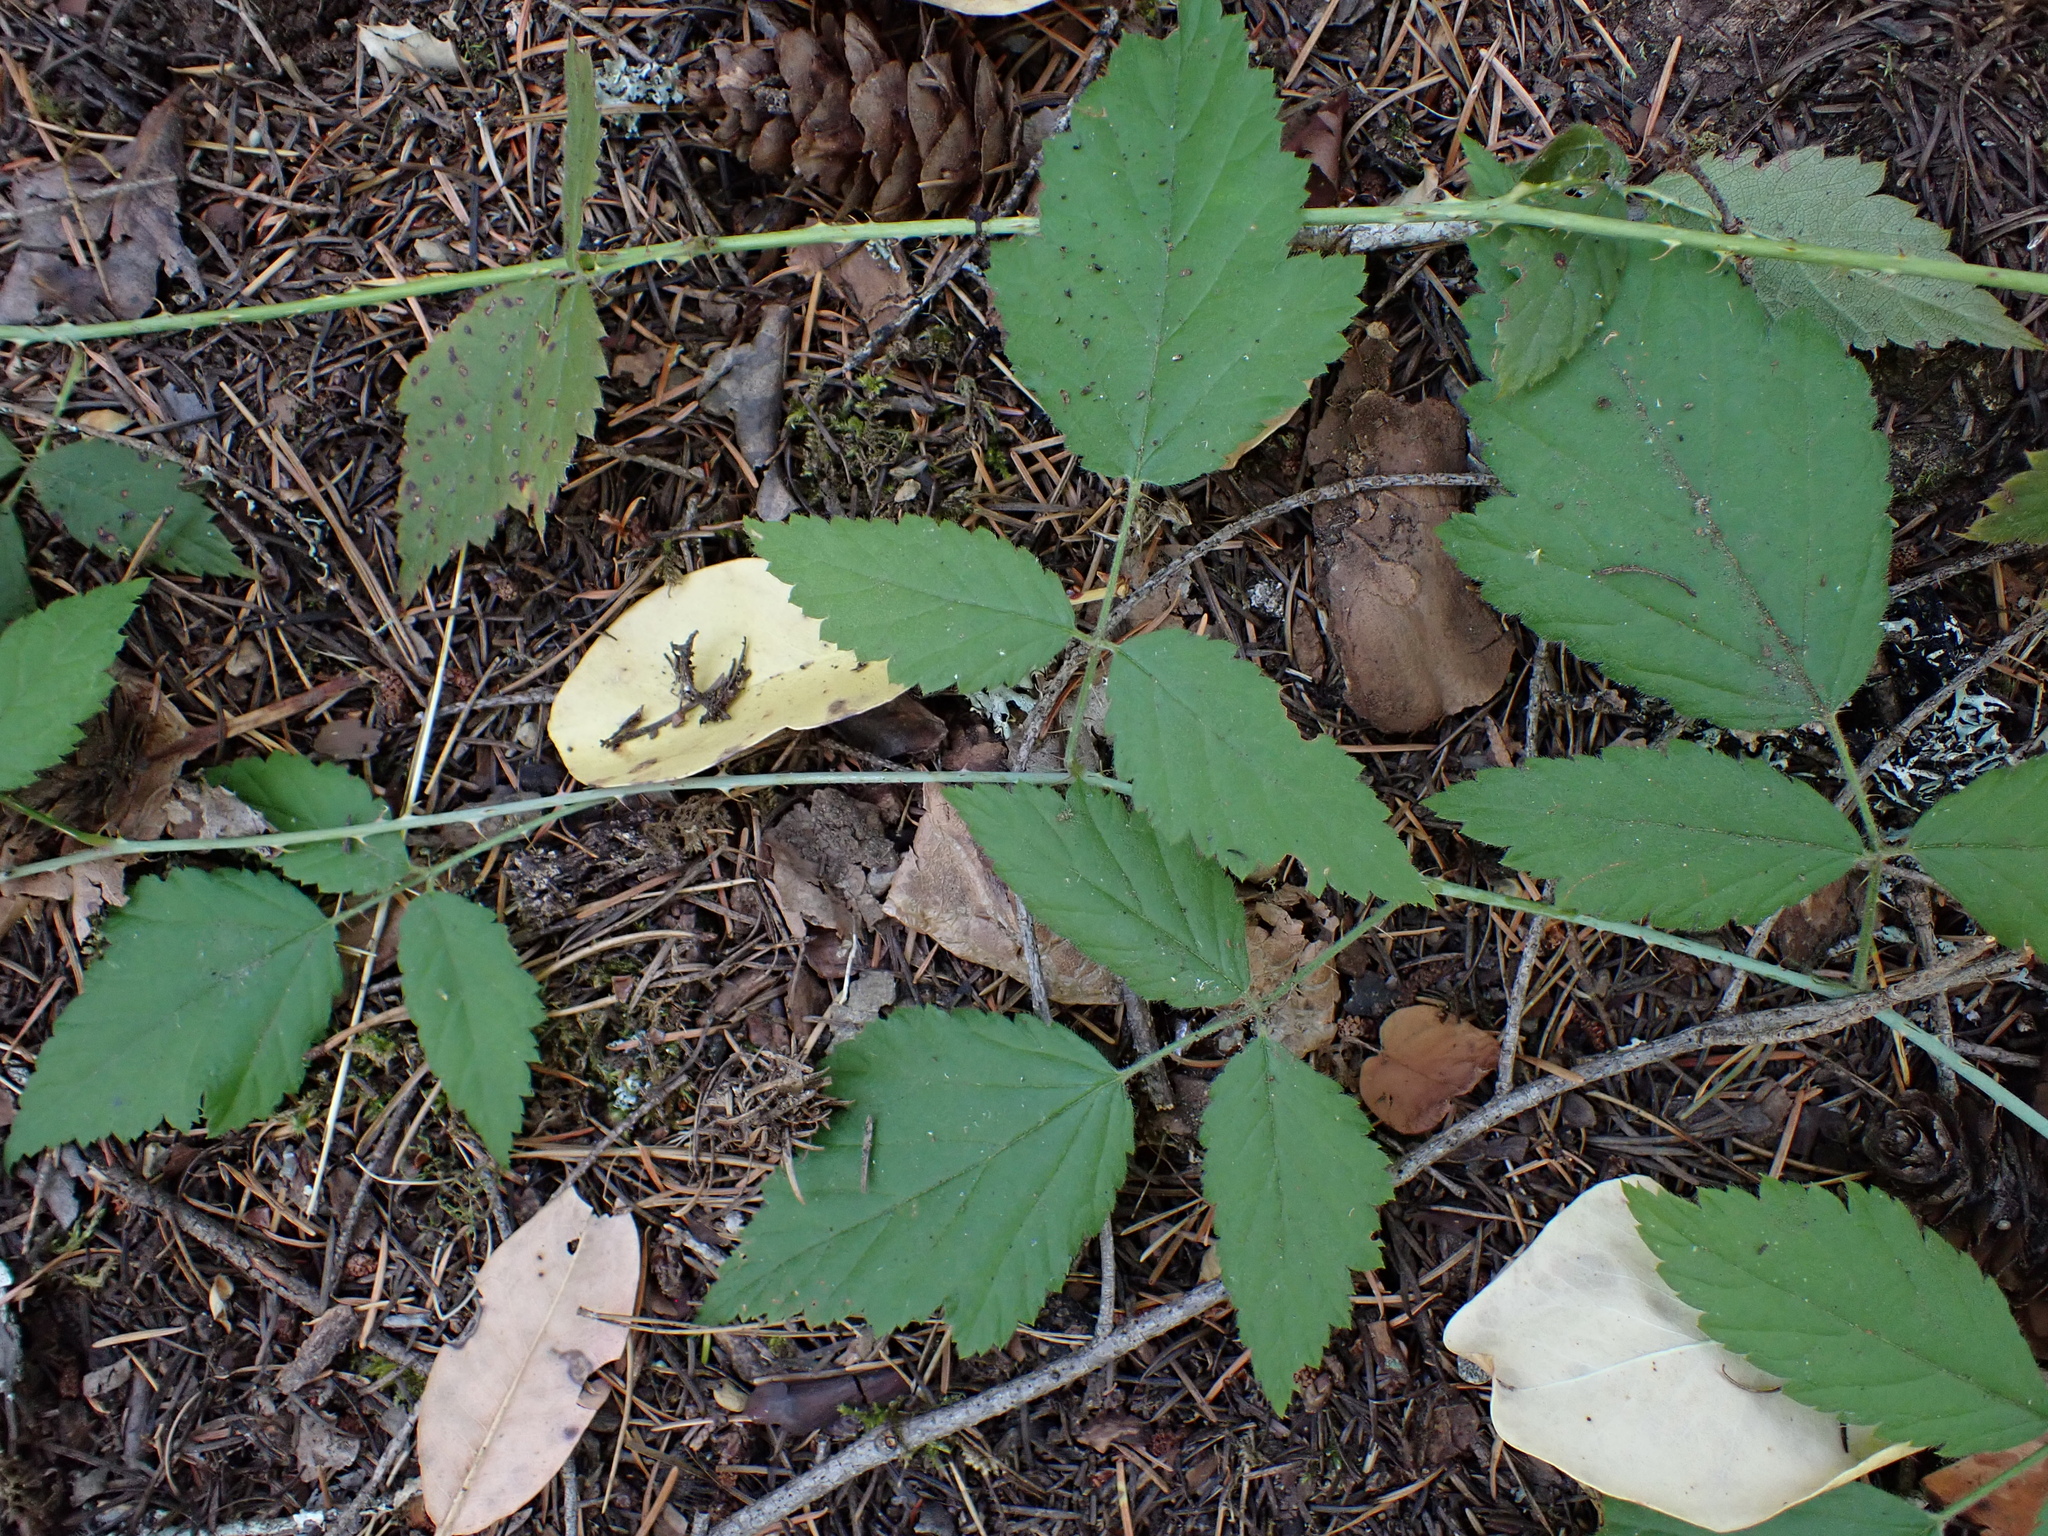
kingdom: Plantae
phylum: Tracheophyta
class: Magnoliopsida
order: Rosales
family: Rosaceae
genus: Rubus
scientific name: Rubus ursinus
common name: Pacific blackberry
